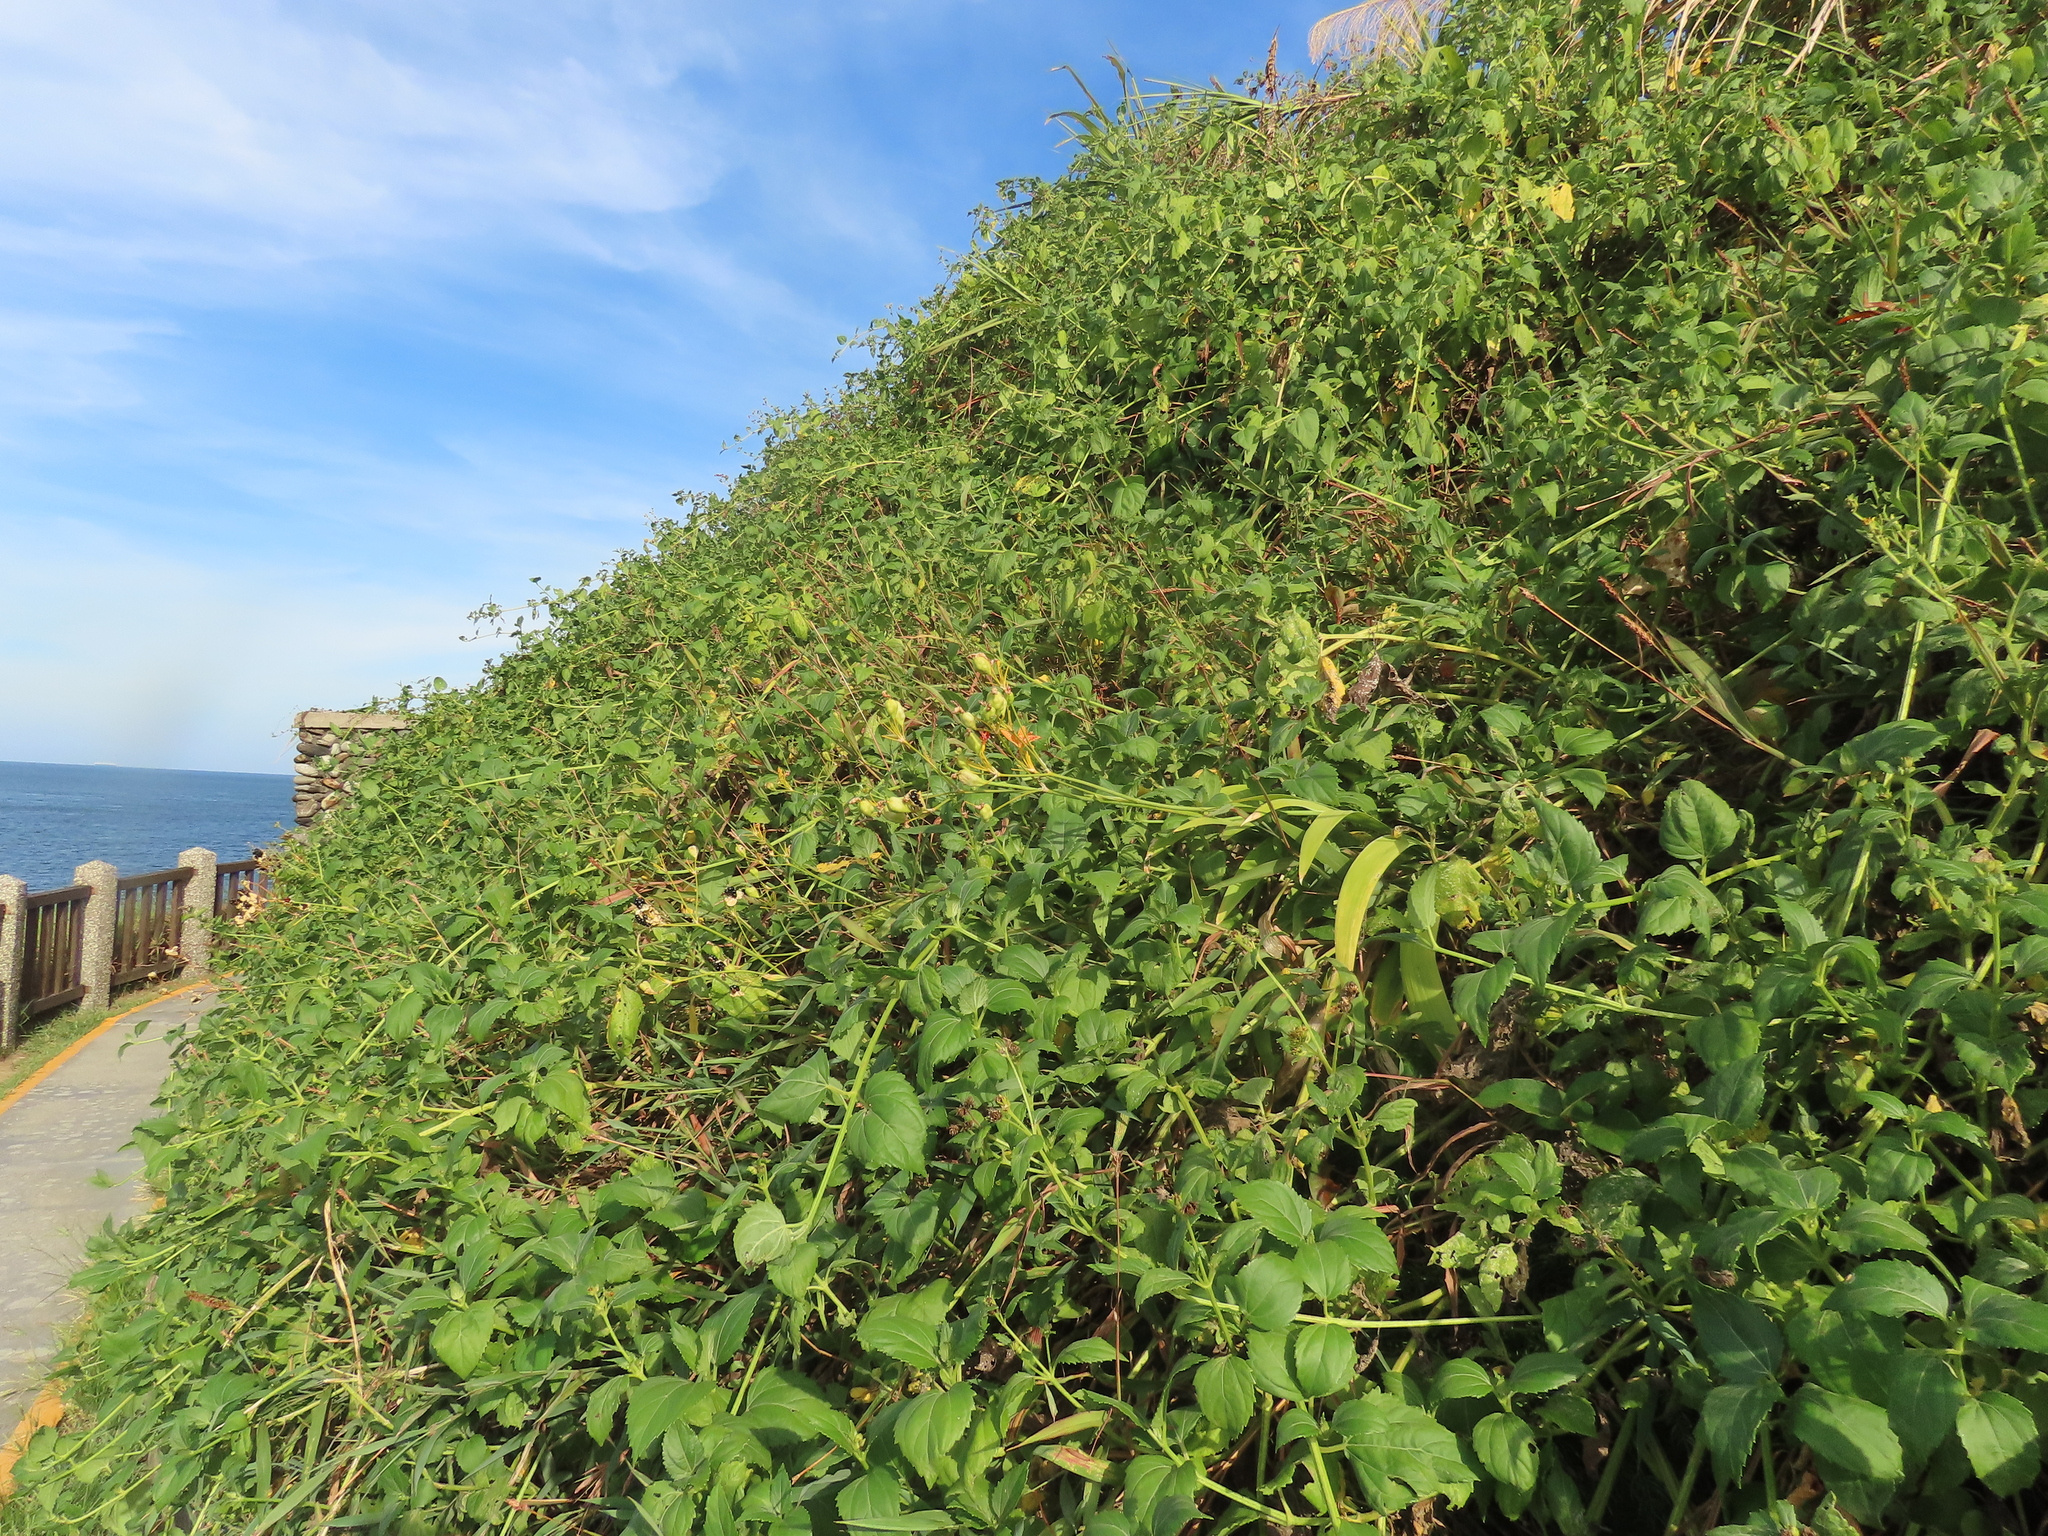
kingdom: Plantae
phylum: Tracheophyta
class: Liliopsida
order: Asparagales
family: Iridaceae
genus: Iris
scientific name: Iris domestica
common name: Belamcanda
